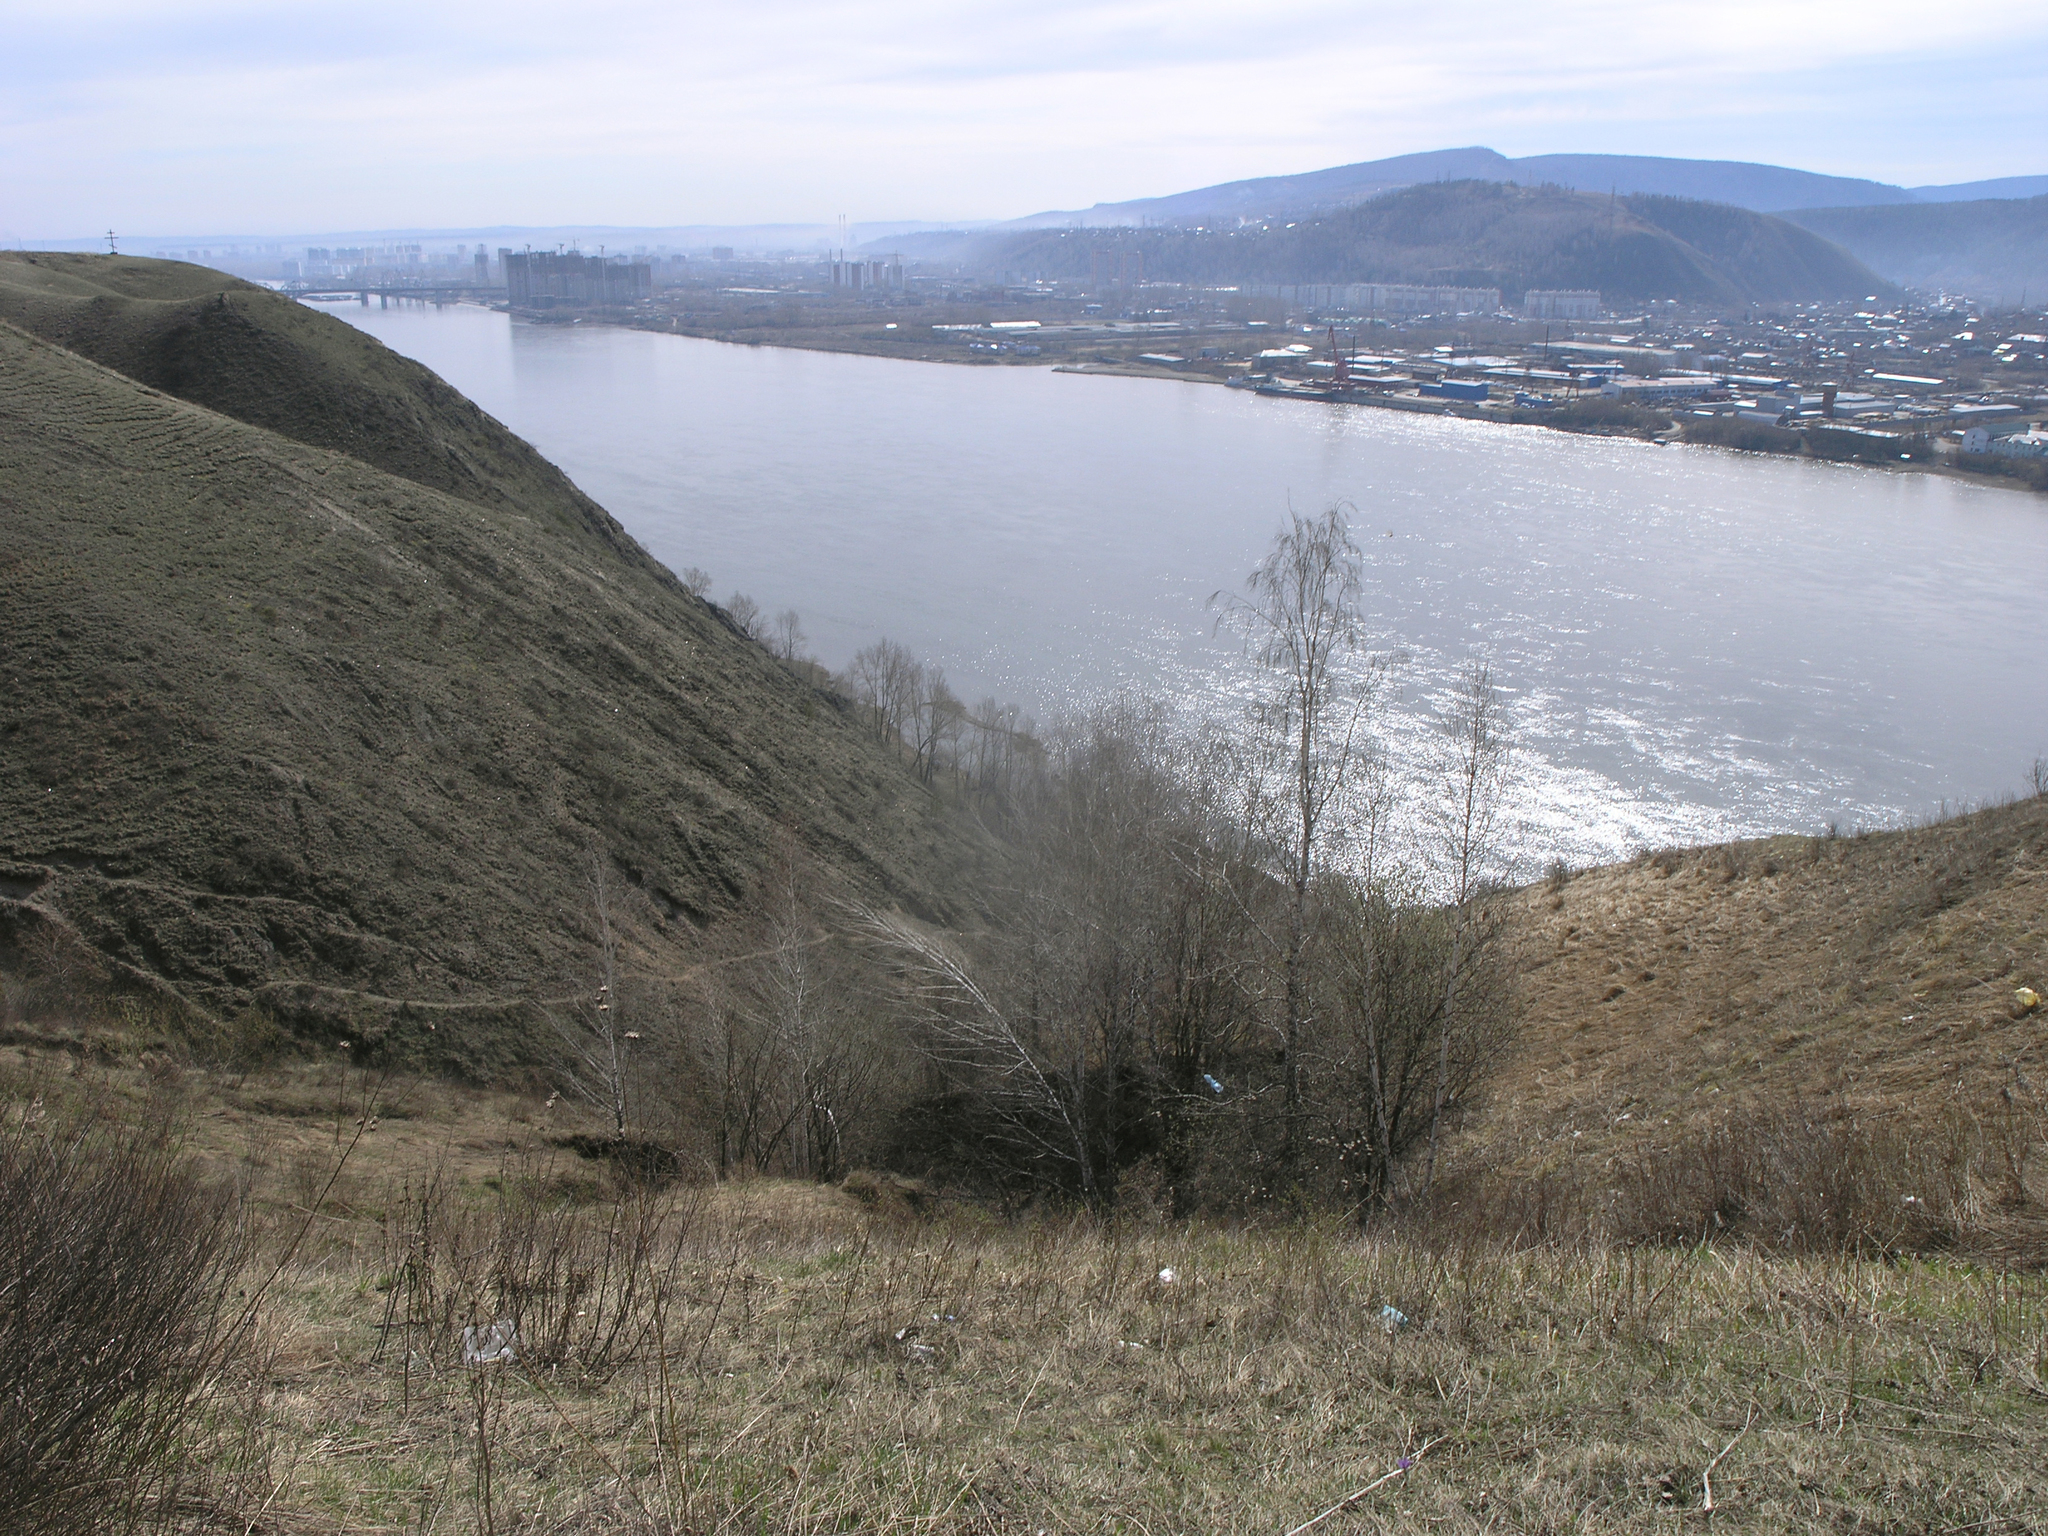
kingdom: Plantae
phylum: Tracheophyta
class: Magnoliopsida
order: Fagales
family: Betulaceae
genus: Betula
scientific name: Betula pendula
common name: Silver birch
